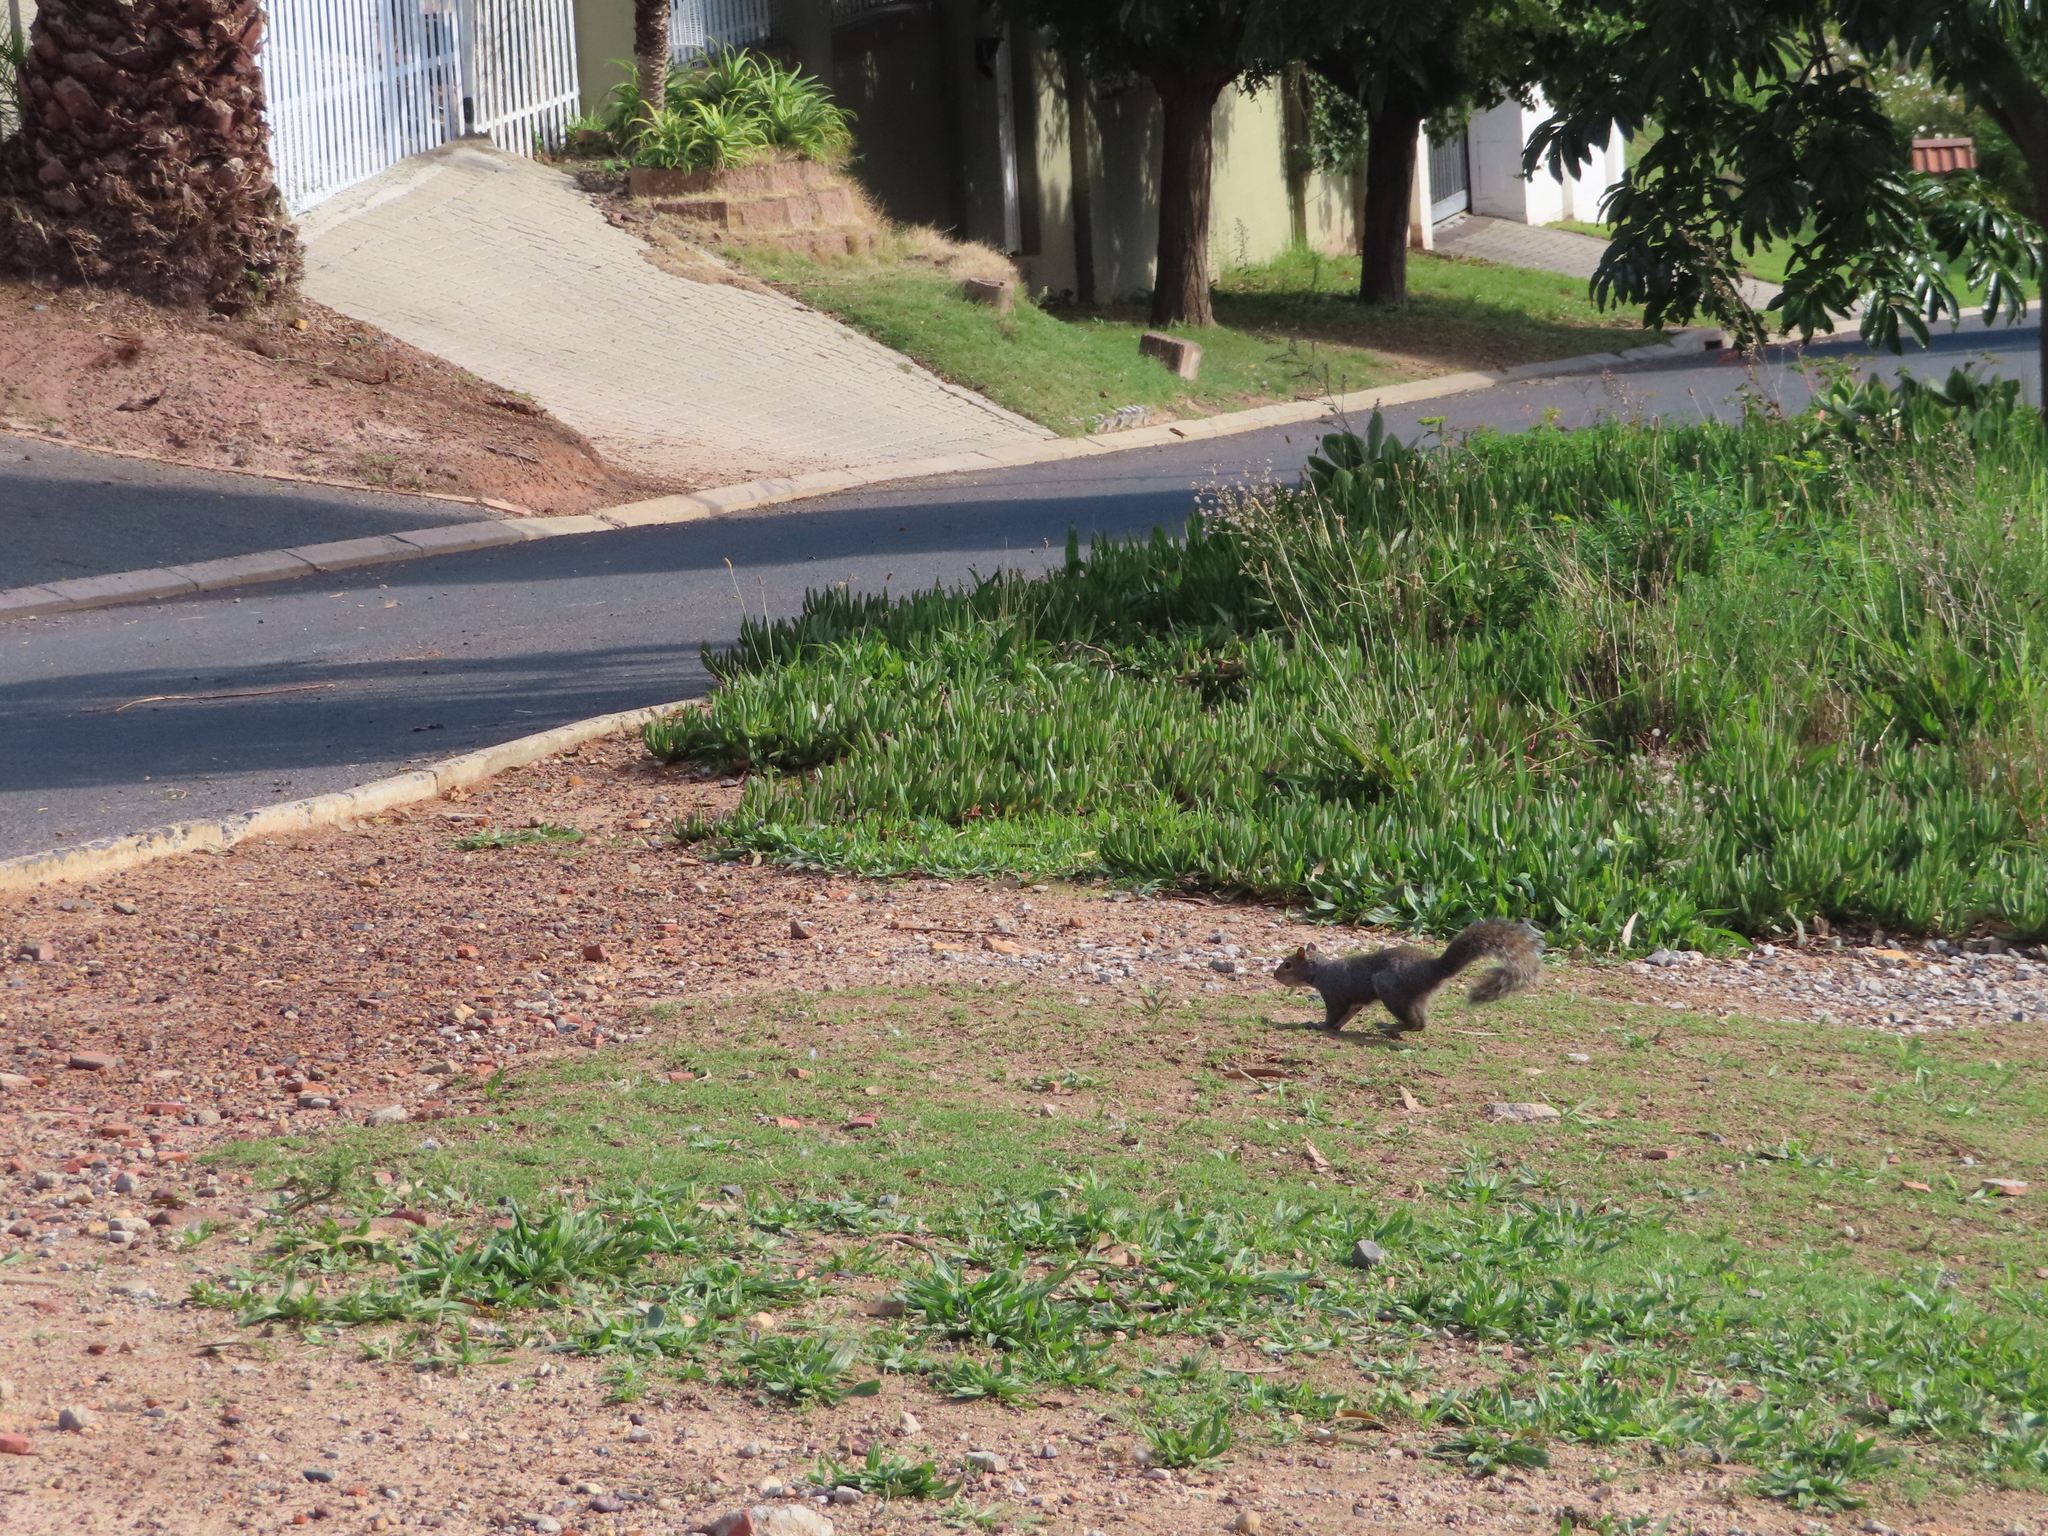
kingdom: Animalia
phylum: Chordata
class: Mammalia
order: Rodentia
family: Sciuridae
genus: Sciurus
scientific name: Sciurus carolinensis
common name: Eastern gray squirrel
